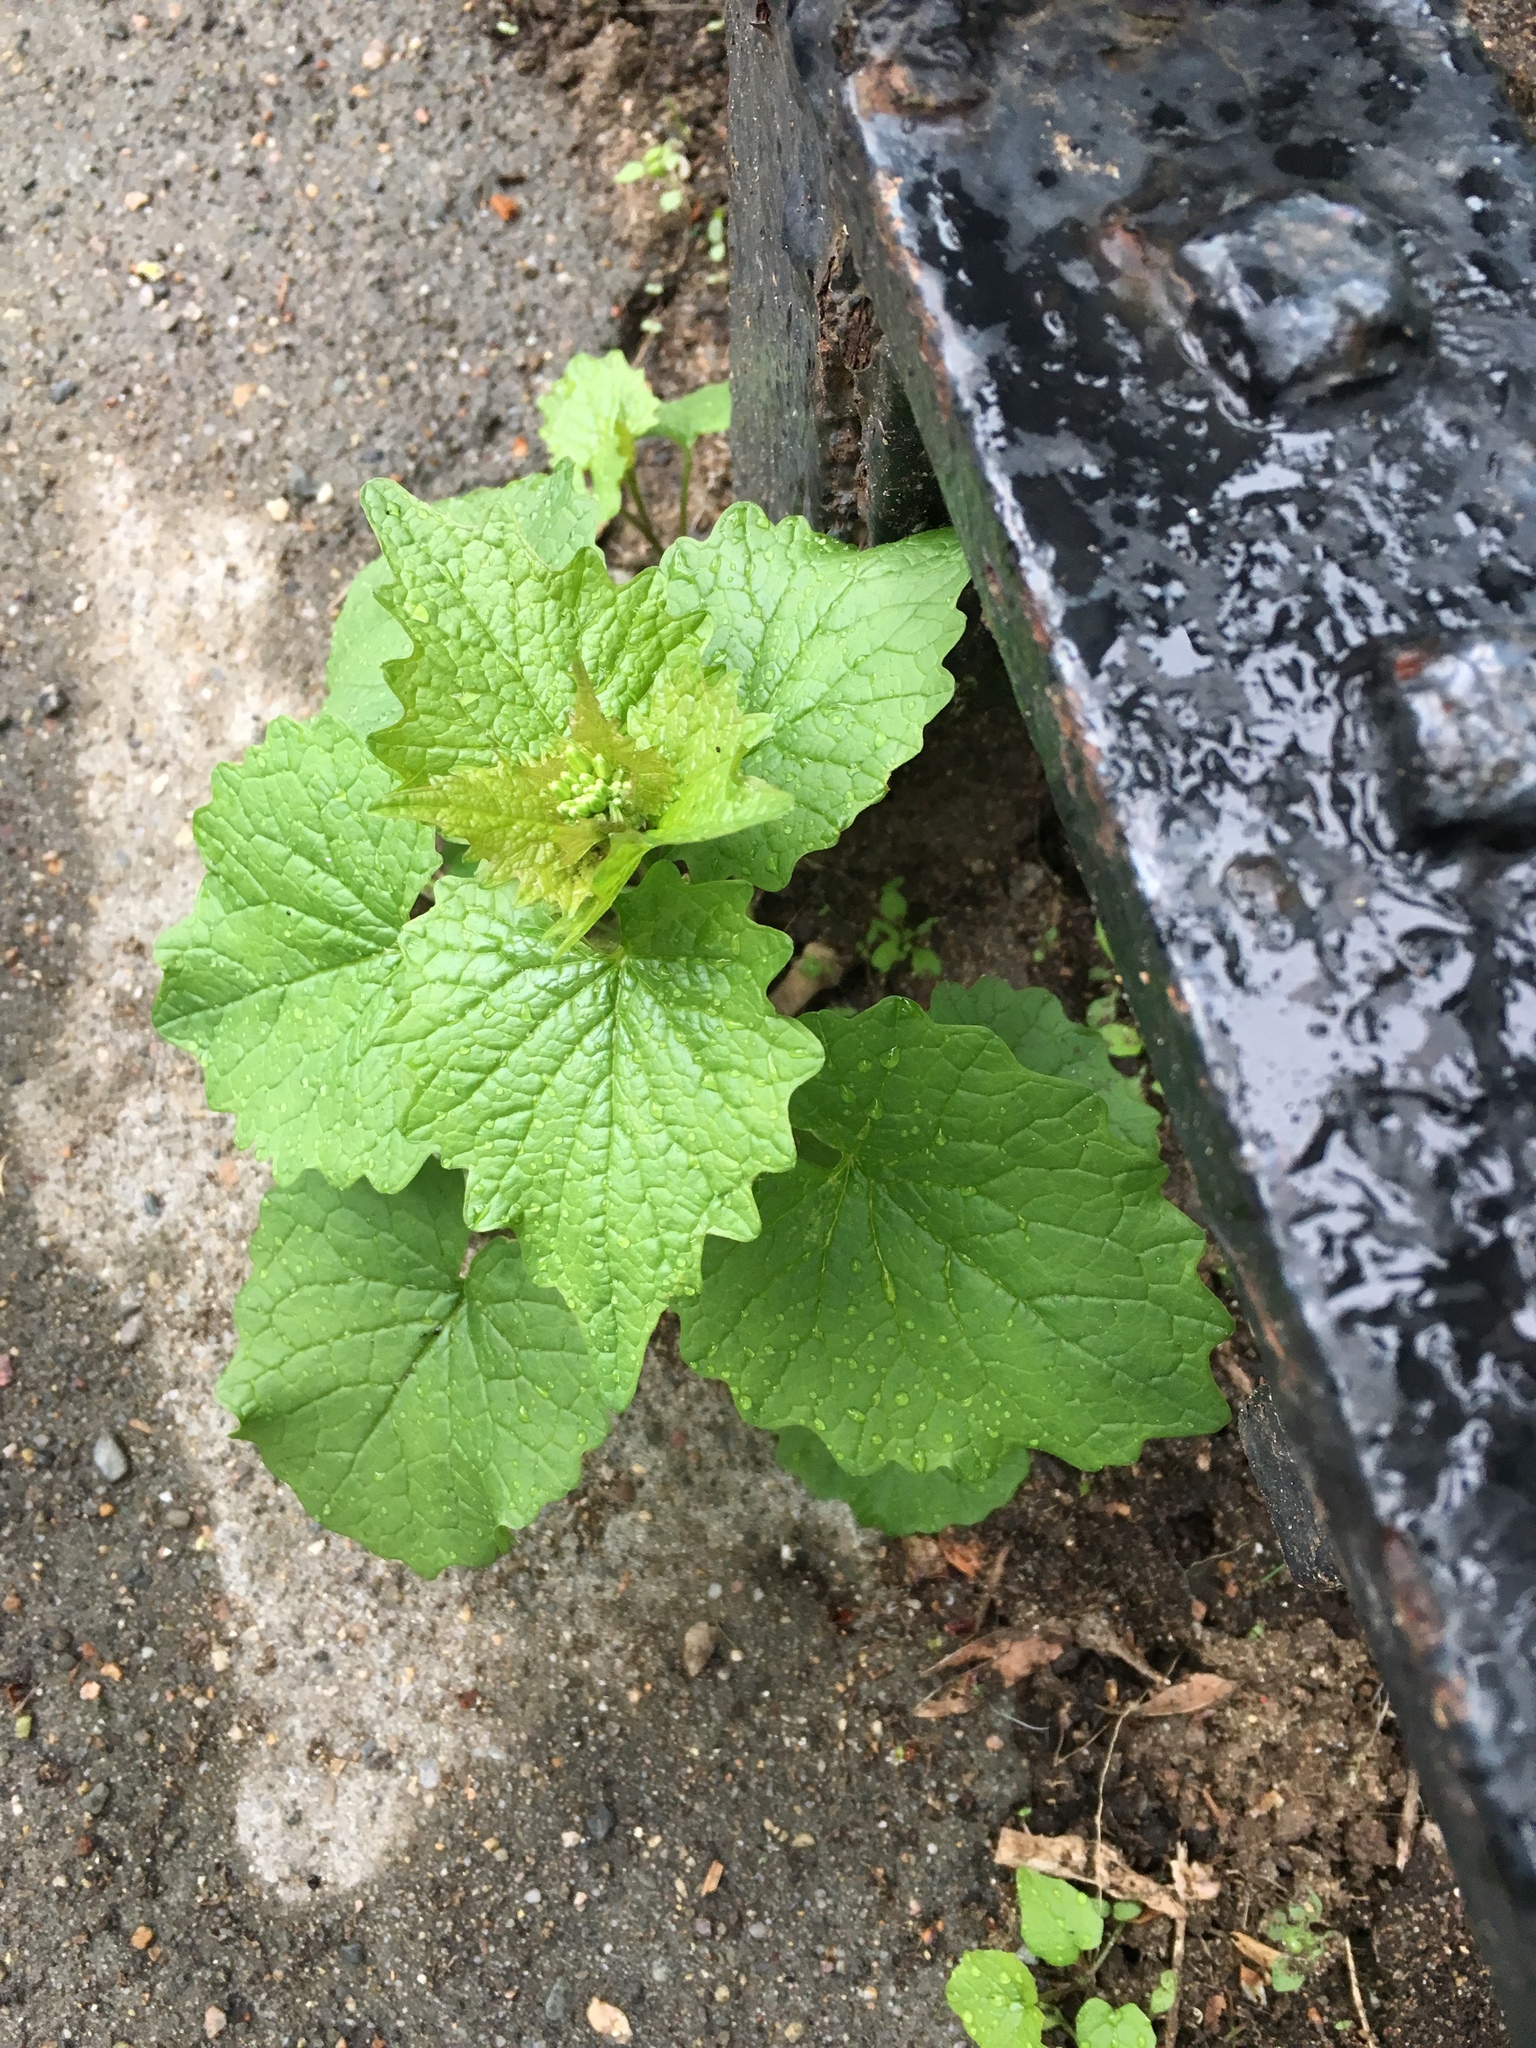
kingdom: Plantae
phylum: Tracheophyta
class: Magnoliopsida
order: Brassicales
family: Brassicaceae
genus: Alliaria
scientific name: Alliaria petiolata
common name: Garlic mustard
